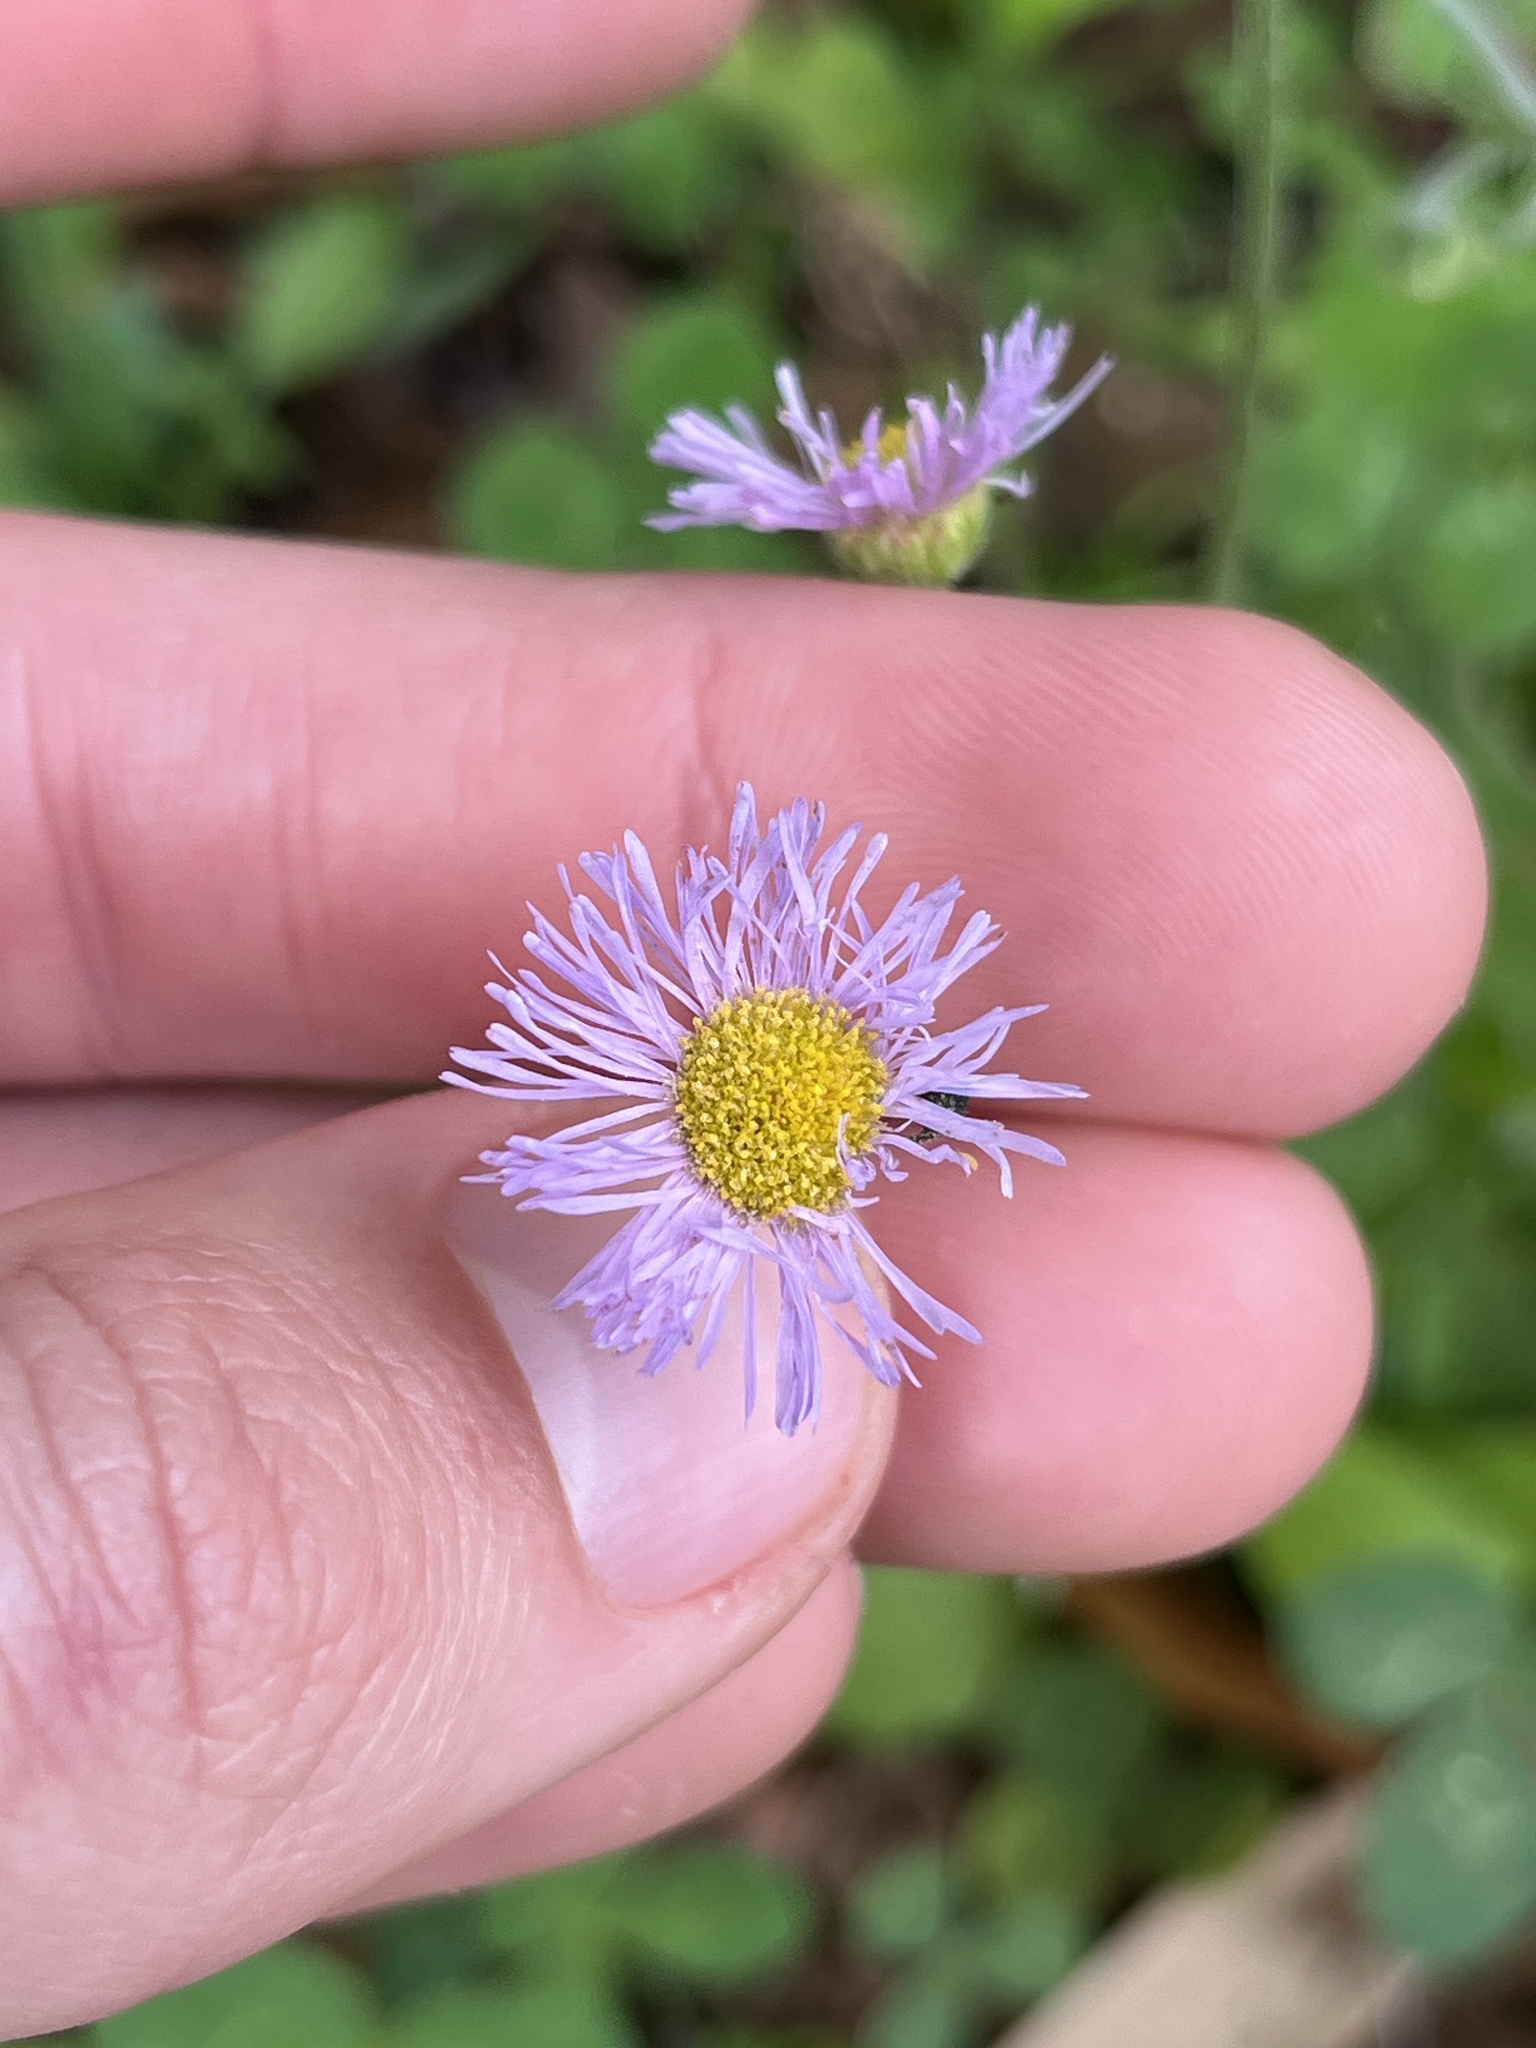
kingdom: Plantae
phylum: Tracheophyta
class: Magnoliopsida
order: Asterales
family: Asteraceae
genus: Erigeron
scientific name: Erigeron quercifolius
